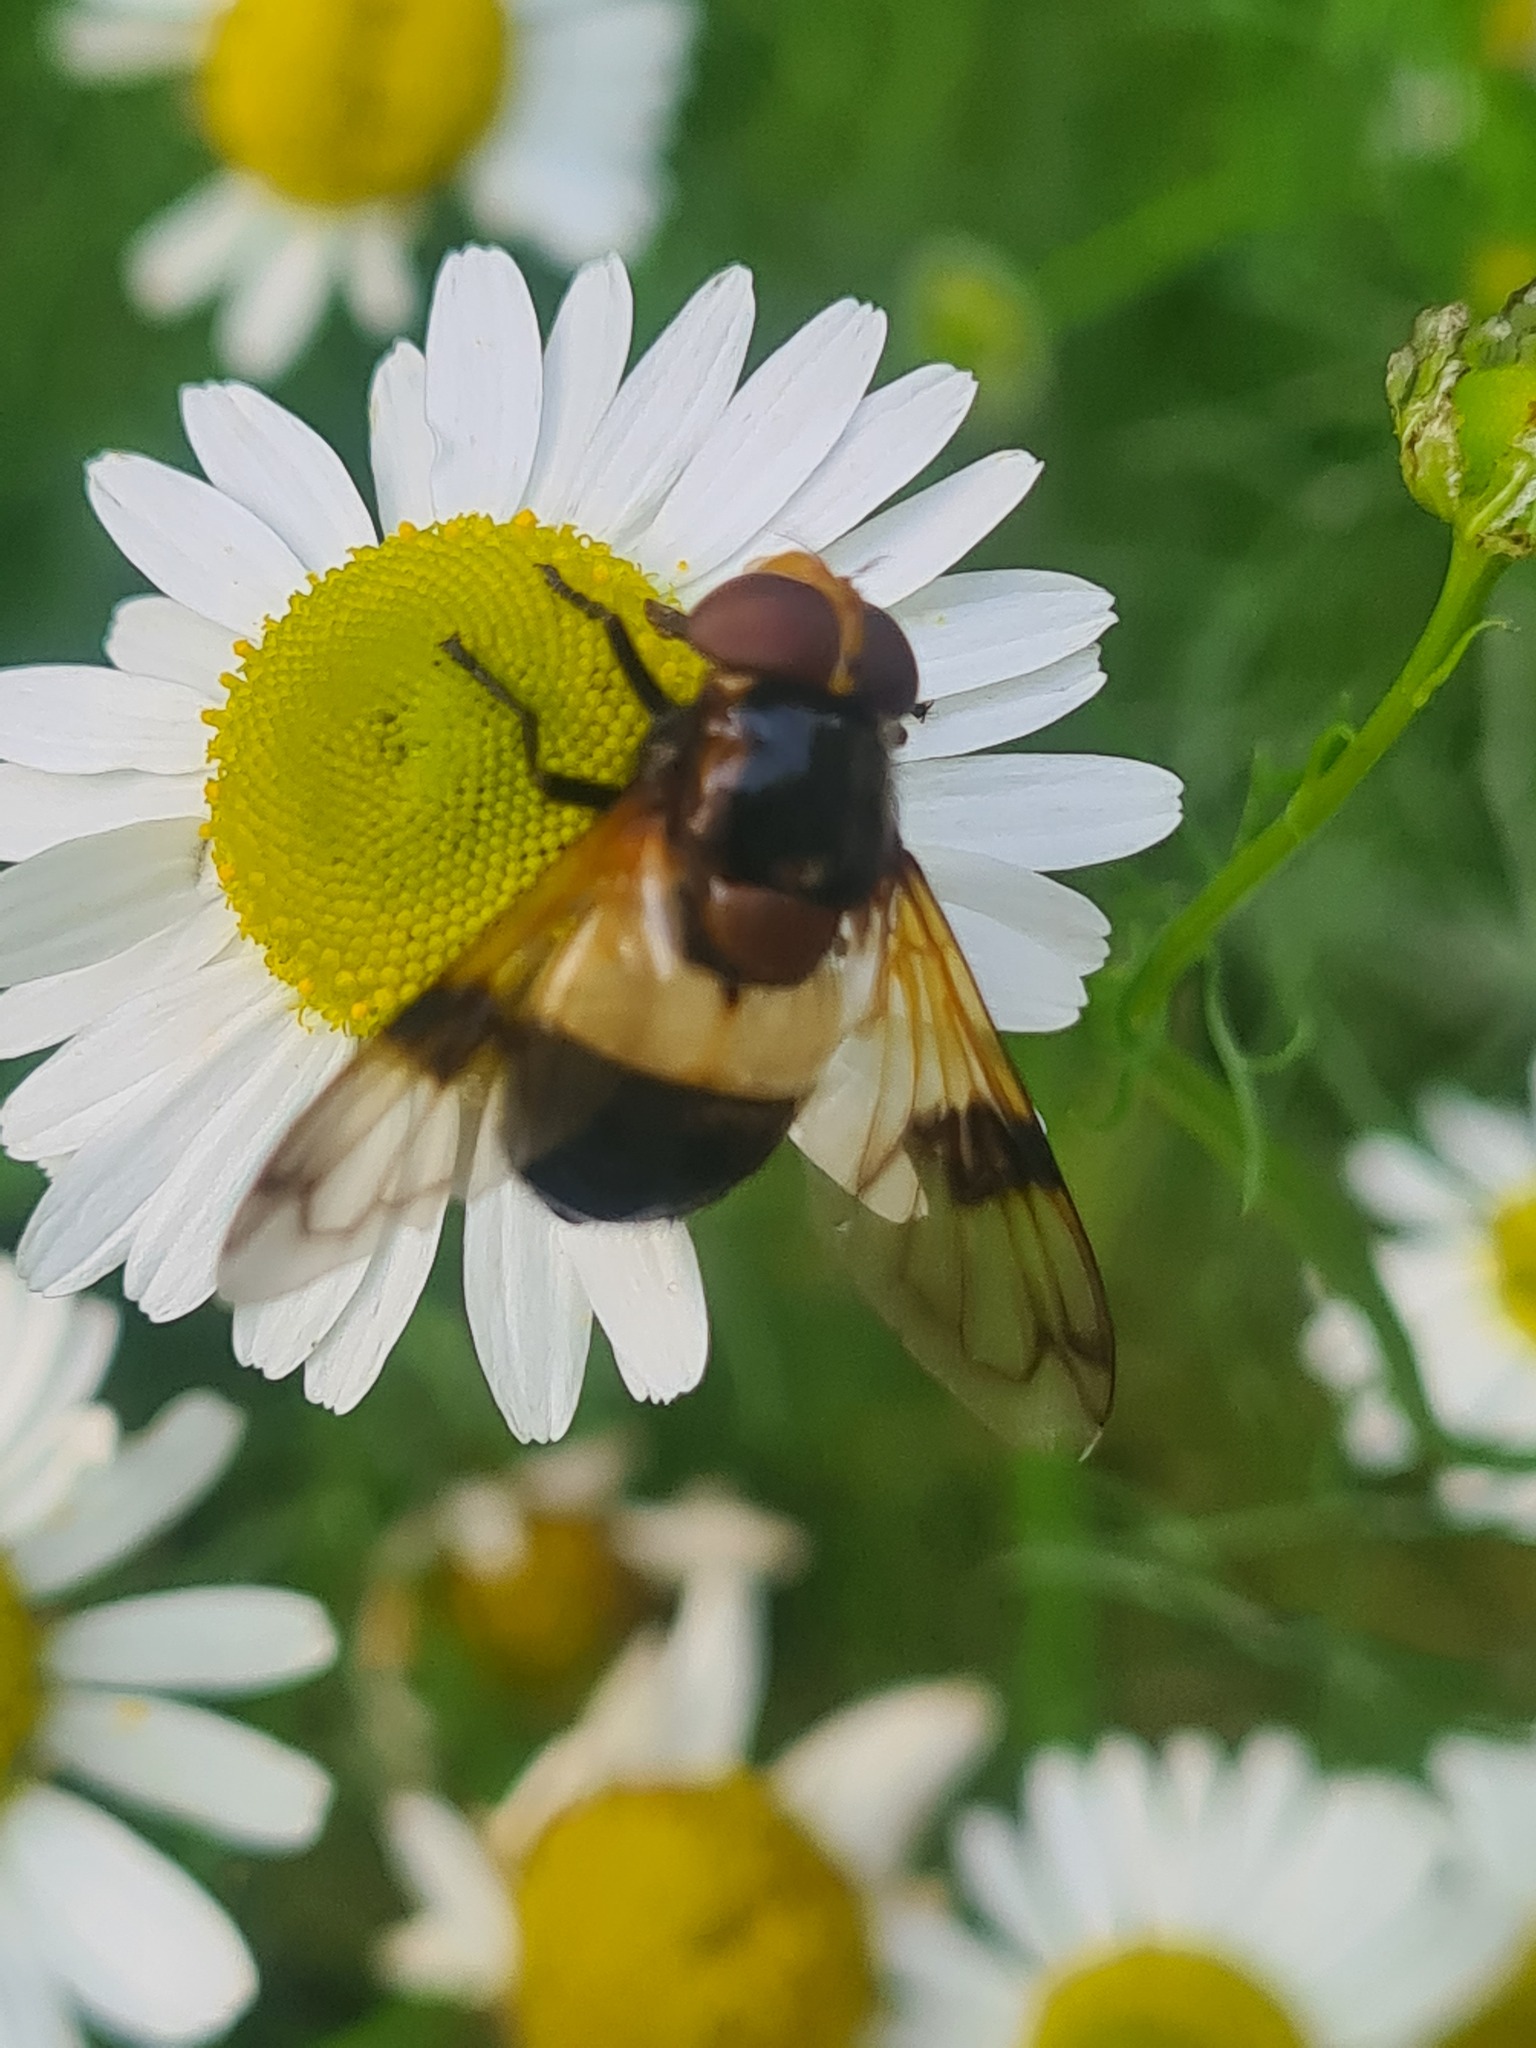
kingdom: Animalia
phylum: Arthropoda
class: Insecta
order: Diptera
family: Syrphidae
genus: Volucella
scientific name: Volucella pellucens
